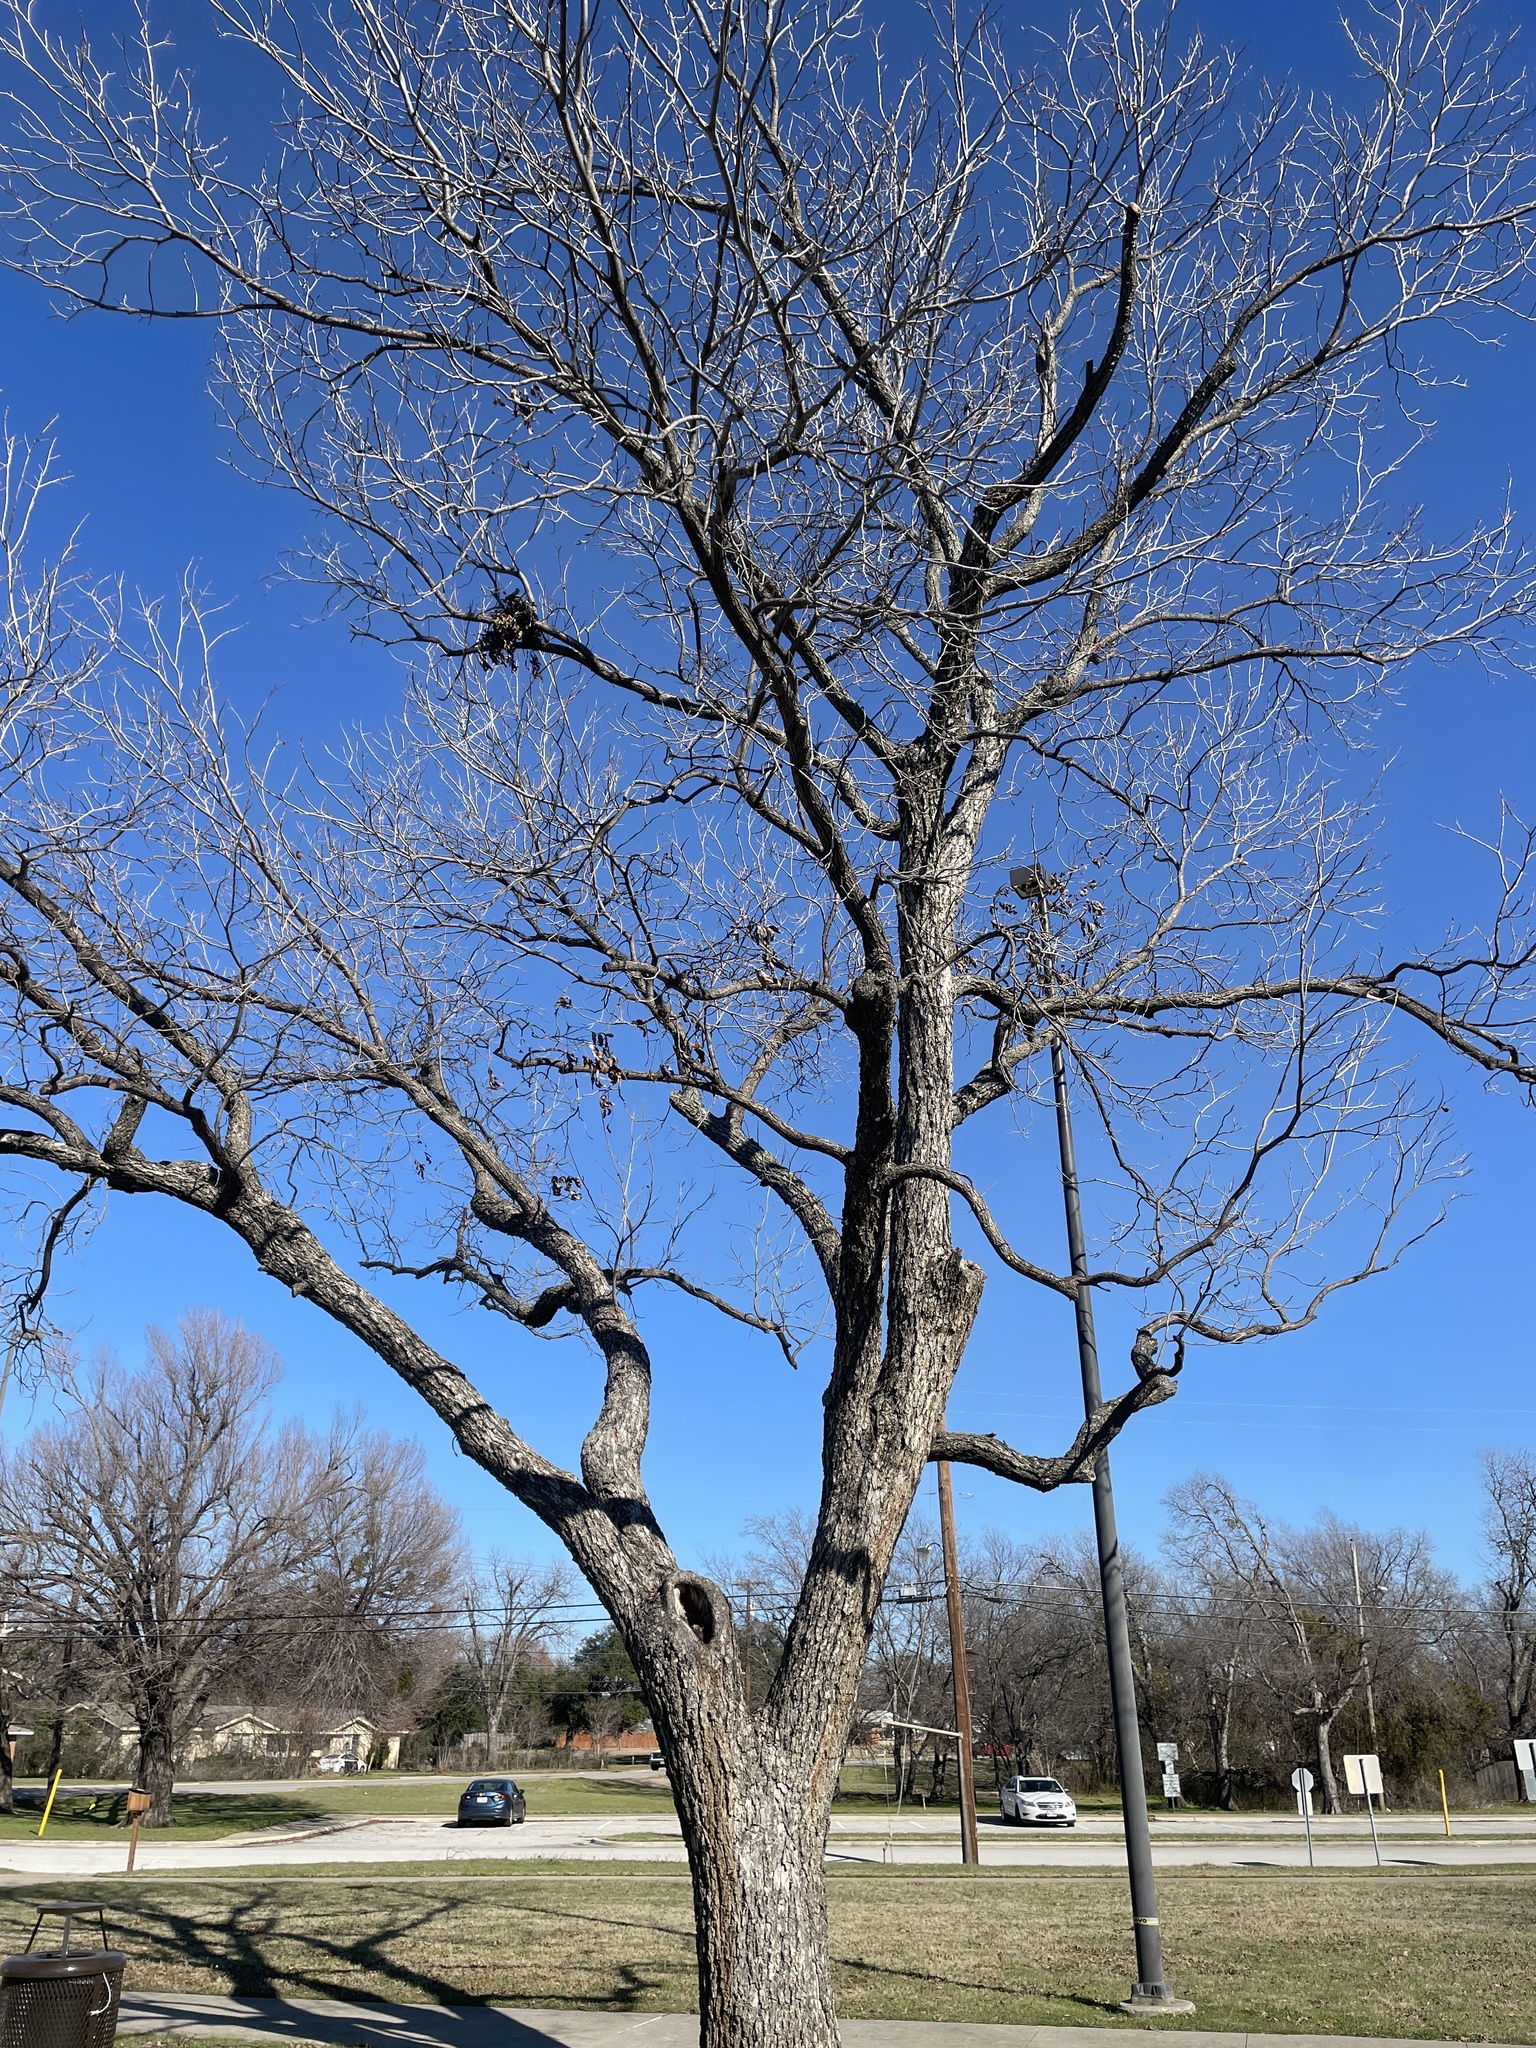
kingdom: Plantae
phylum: Tracheophyta
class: Magnoliopsida
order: Fagales
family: Juglandaceae
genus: Carya
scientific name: Carya illinoinensis
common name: Pecan
